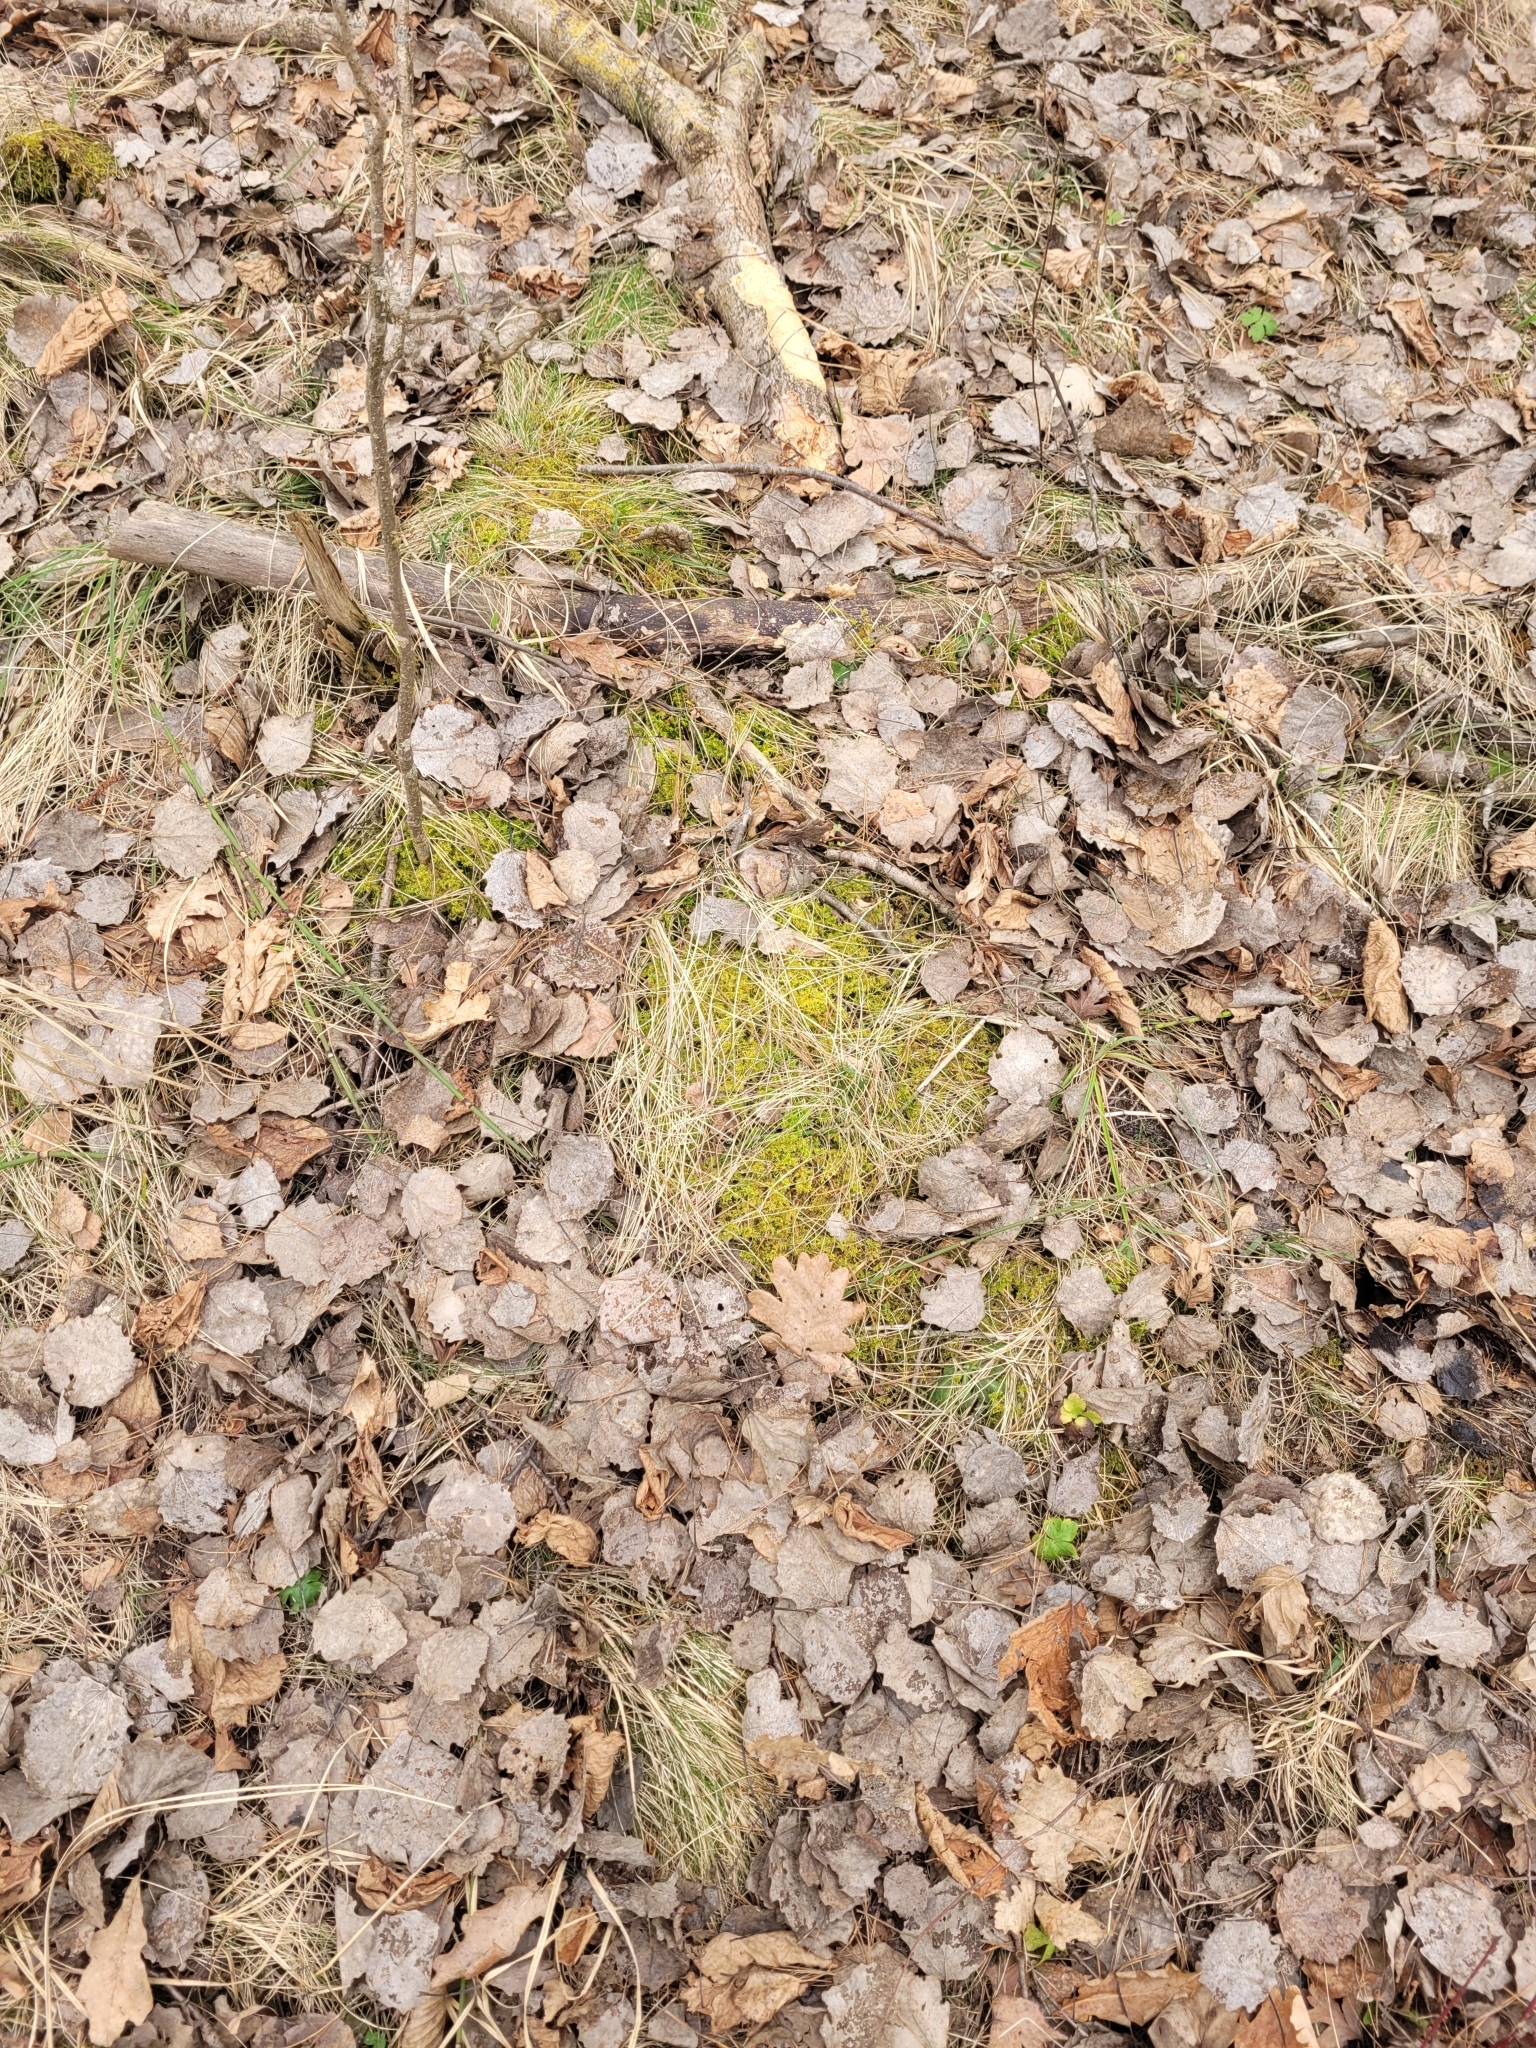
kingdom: Plantae
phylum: Bryophyta
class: Bryopsida
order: Hypnales
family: Thuidiaceae
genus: Thuidium
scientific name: Thuidium recognitum
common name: Hook-leaved fern moss
